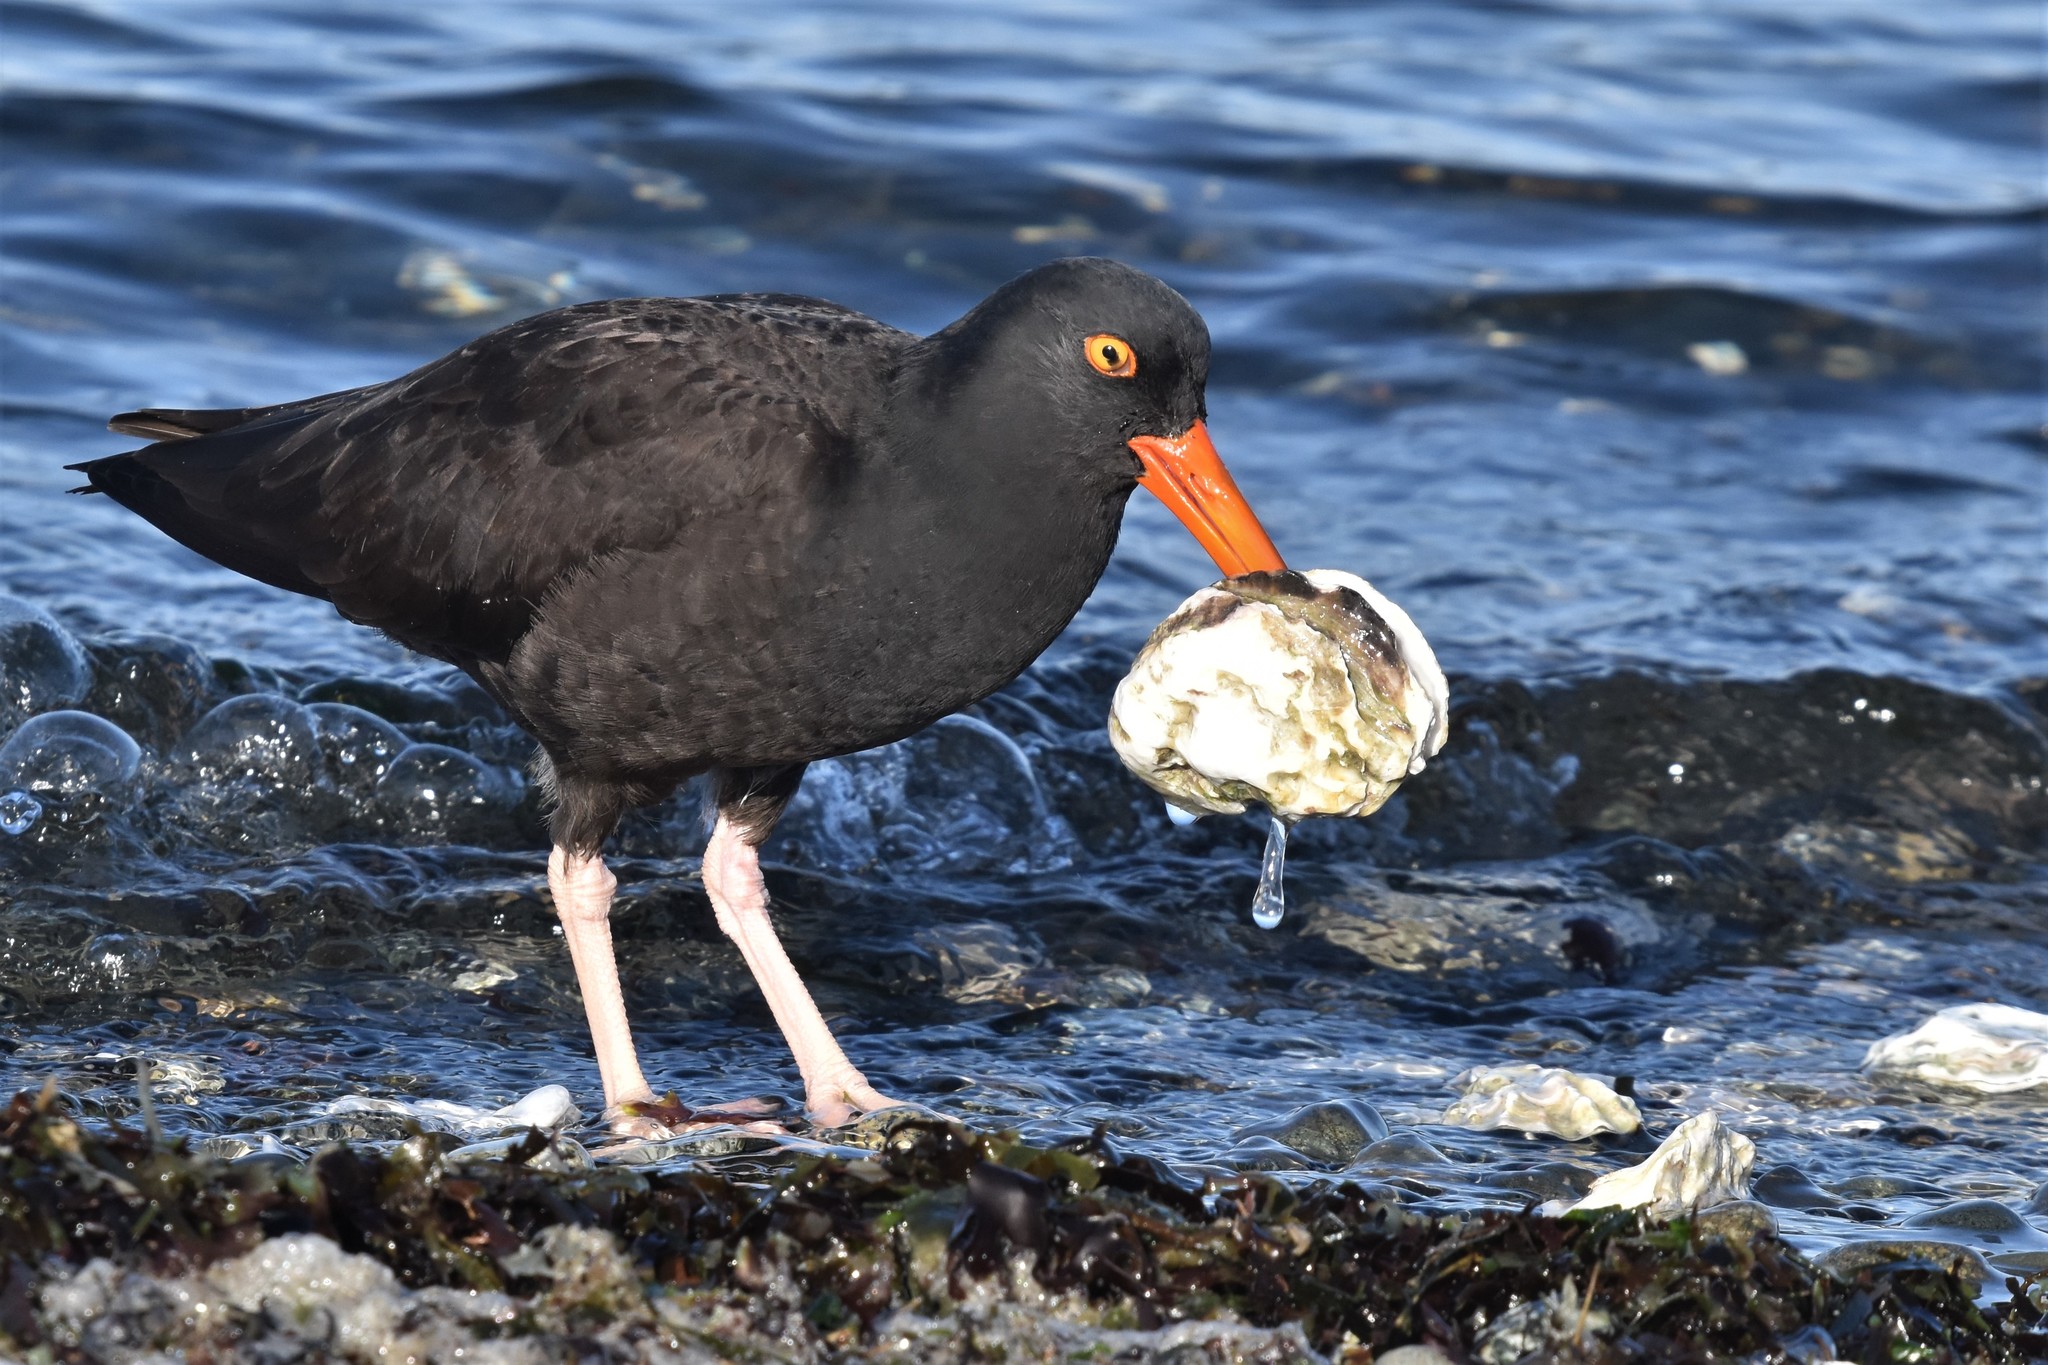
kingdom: Animalia
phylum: Chordata
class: Aves
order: Charadriiformes
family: Haematopodidae
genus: Haematopus
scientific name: Haematopus bachmani
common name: Black oystercatcher
